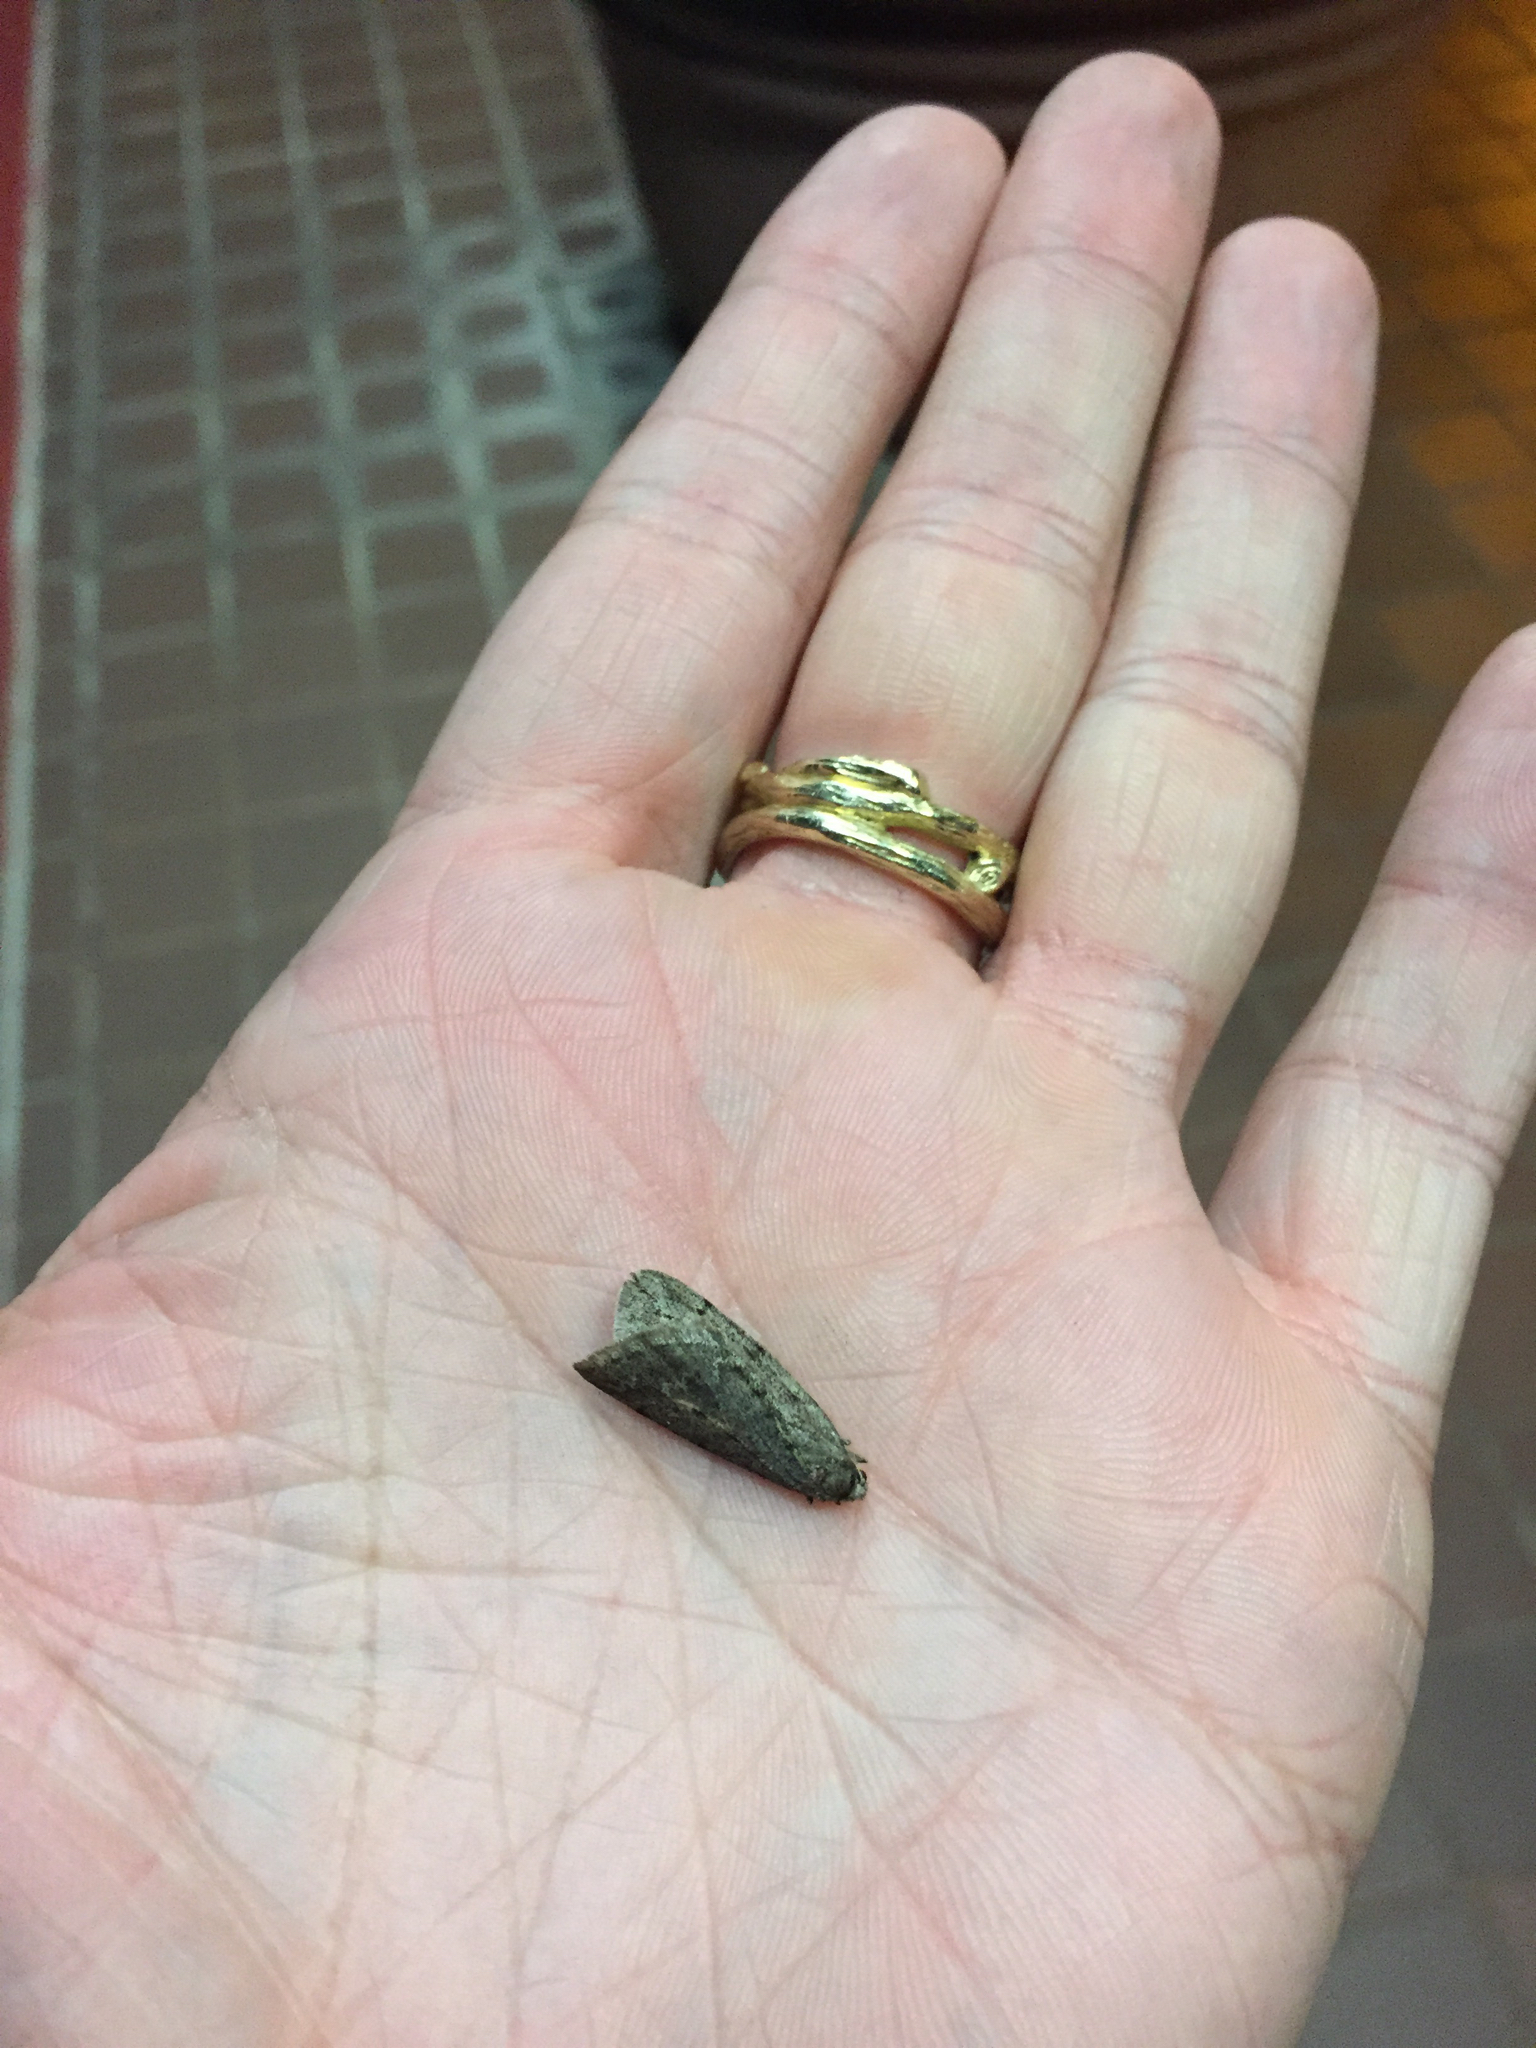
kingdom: Animalia
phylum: Arthropoda
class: Insecta
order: Lepidoptera
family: Geometridae
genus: Paleacrita
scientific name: Paleacrita vernata
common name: Spring cankerworm
